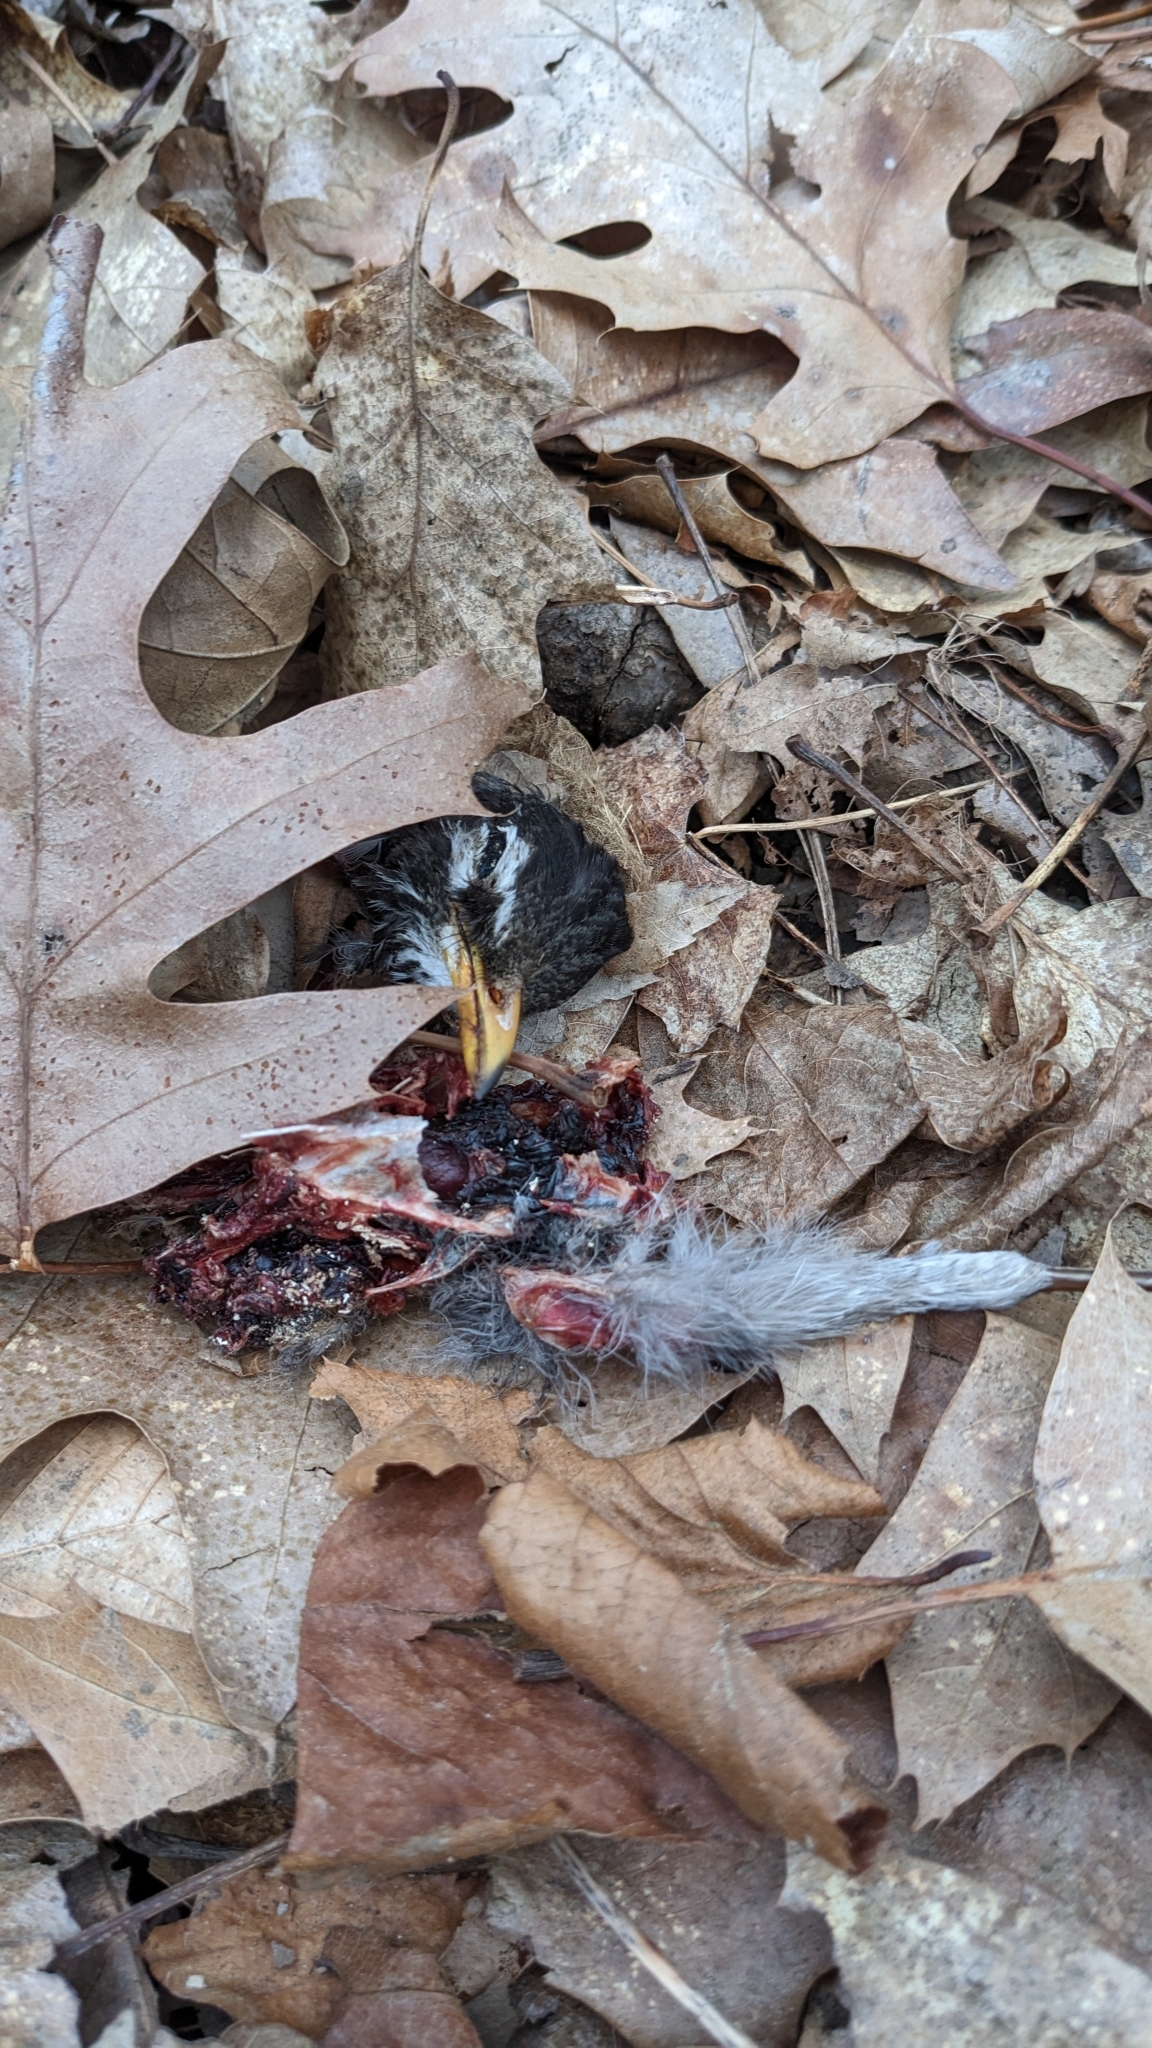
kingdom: Animalia
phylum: Chordata
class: Aves
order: Passeriformes
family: Turdidae
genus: Turdus
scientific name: Turdus migratorius
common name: American robin
